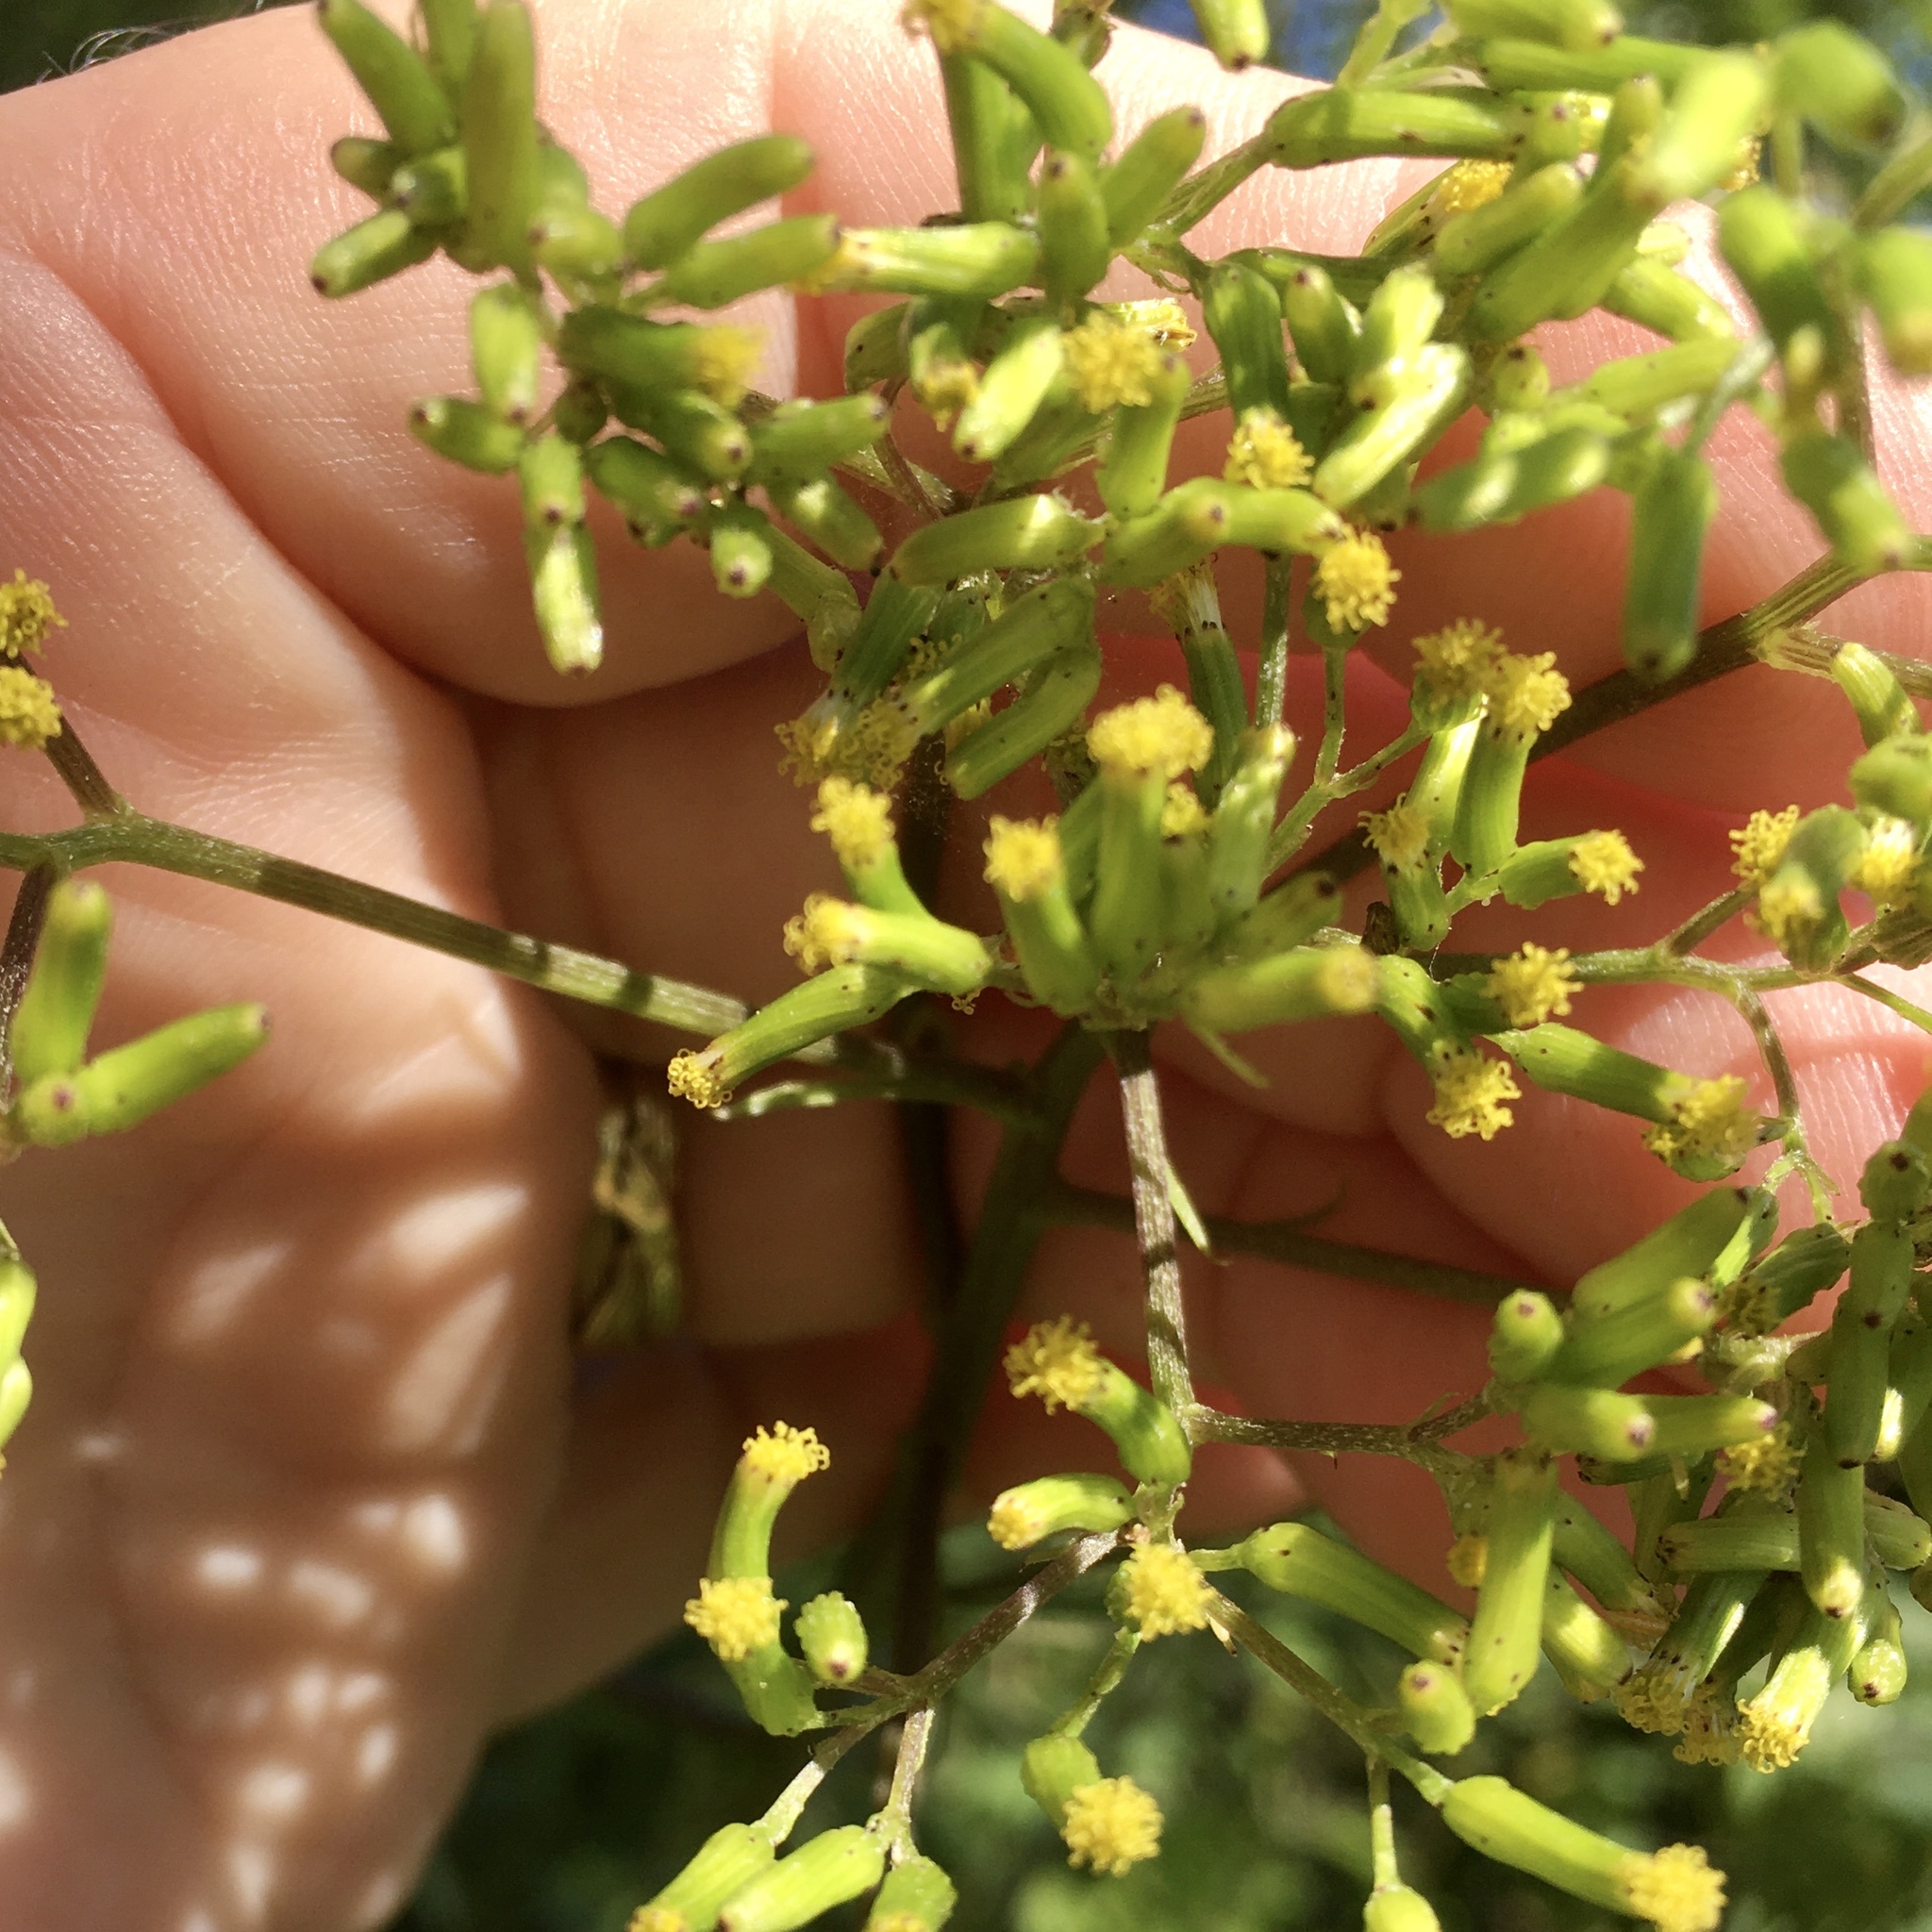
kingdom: Plantae
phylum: Tracheophyta
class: Magnoliopsida
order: Asterales
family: Asteraceae
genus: Senecio
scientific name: Senecio minimus
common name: Toothed fireweed
